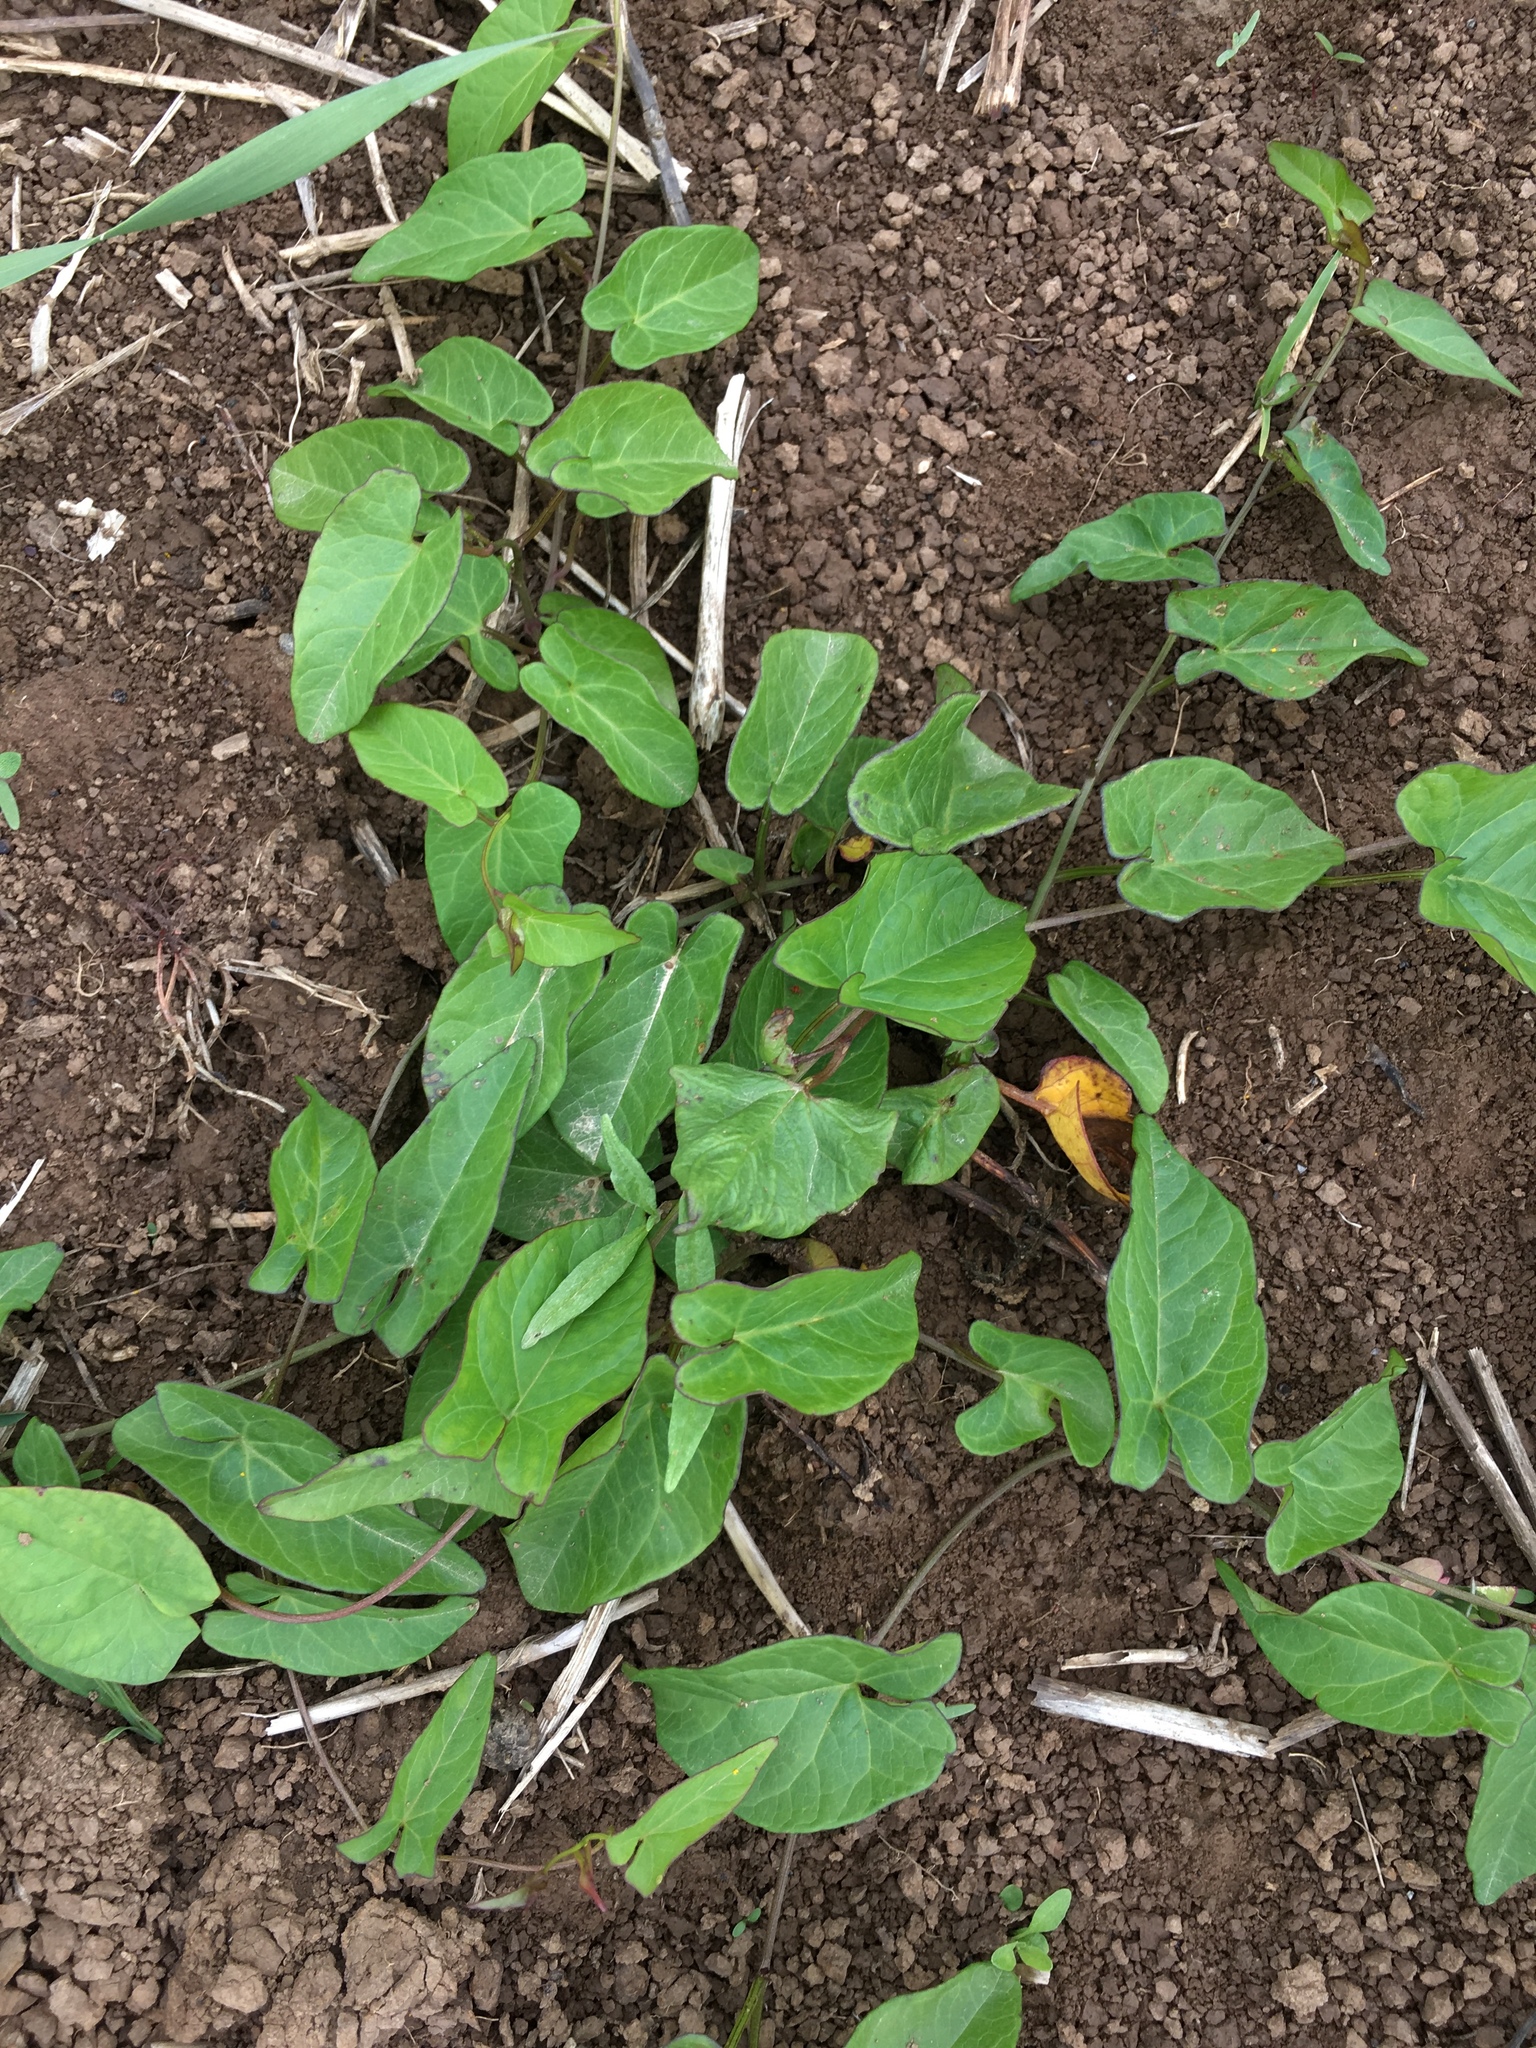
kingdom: Plantae
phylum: Tracheophyta
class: Magnoliopsida
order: Solanales
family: Convolvulaceae
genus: Calystegia
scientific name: Calystegia
